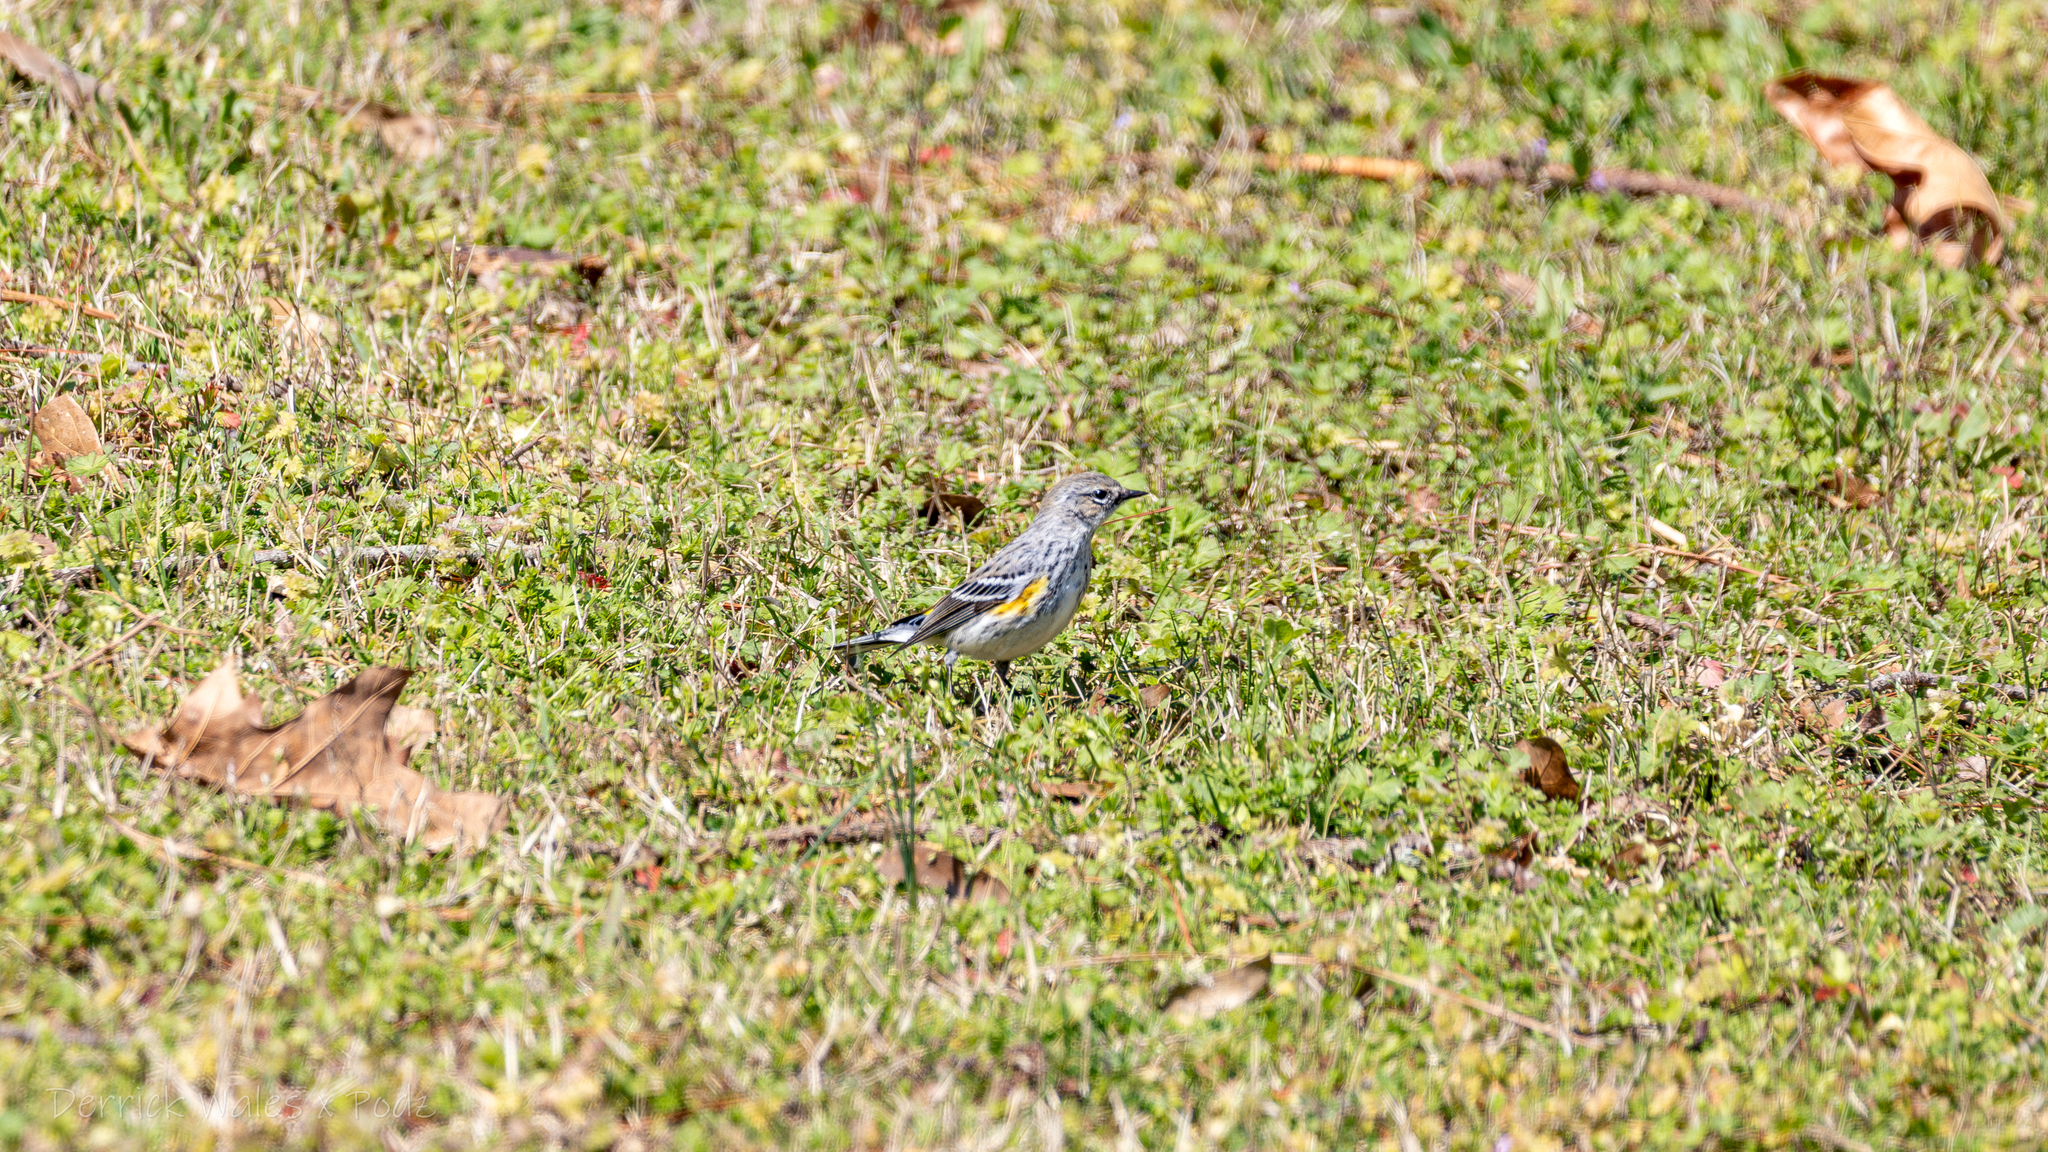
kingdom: Animalia
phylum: Chordata
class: Aves
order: Passeriformes
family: Parulidae
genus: Setophaga
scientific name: Setophaga coronata
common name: Myrtle warbler
